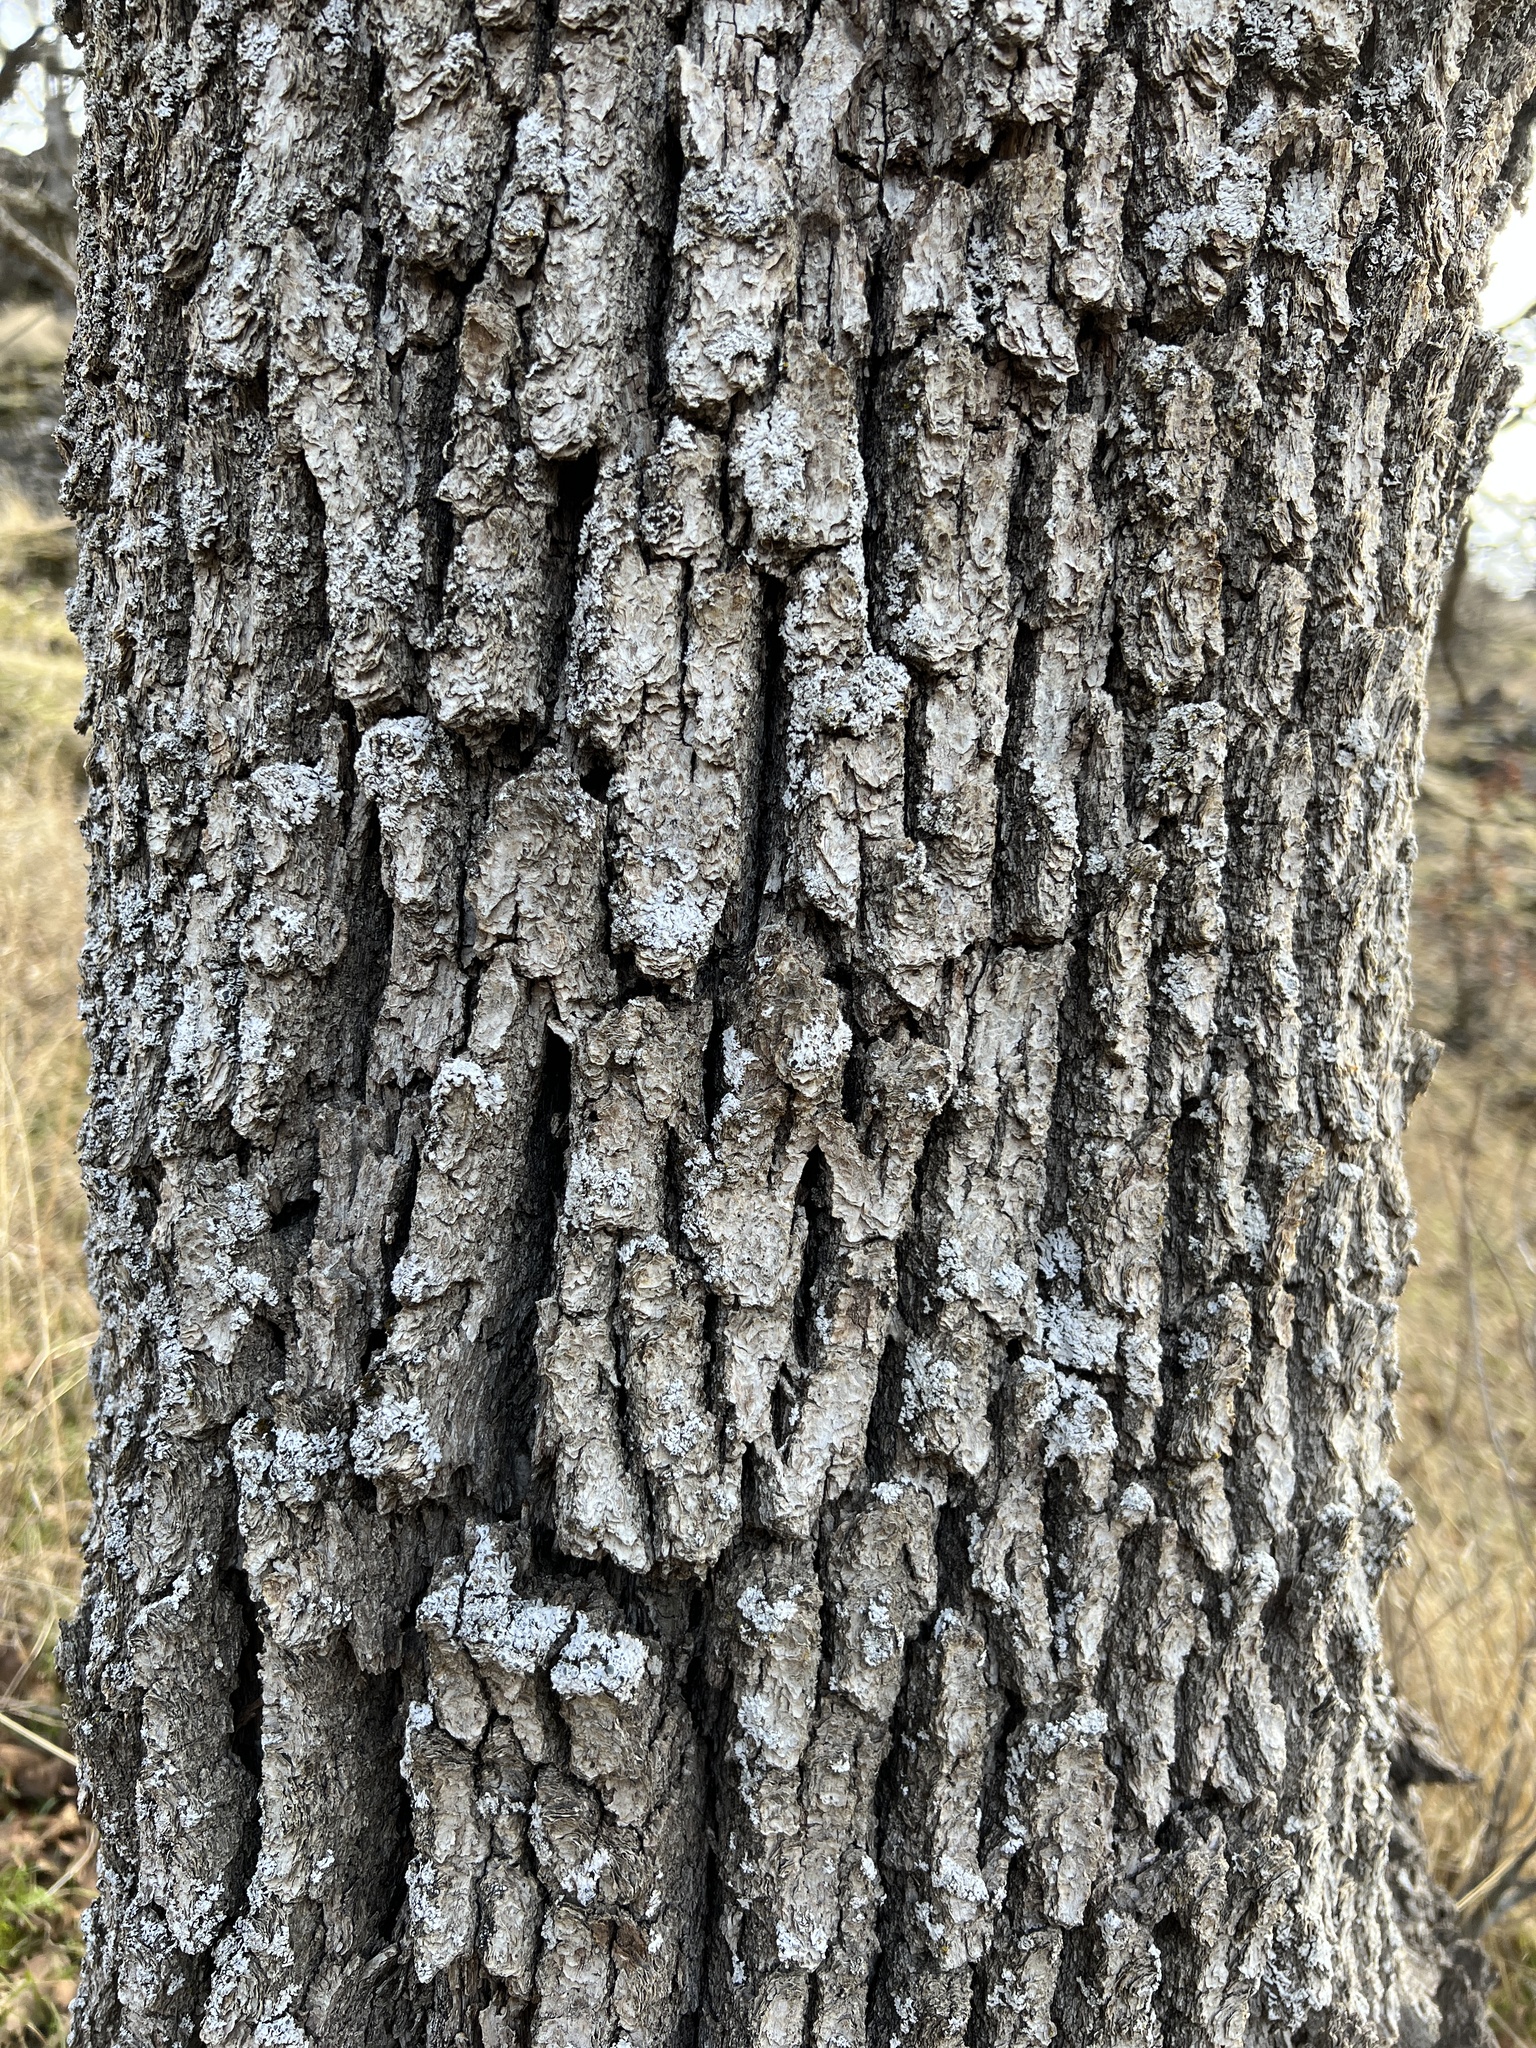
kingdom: Plantae
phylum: Tracheophyta
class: Magnoliopsida
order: Fagales
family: Fagaceae
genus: Quercus
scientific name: Quercus garryana
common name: Garry oak
